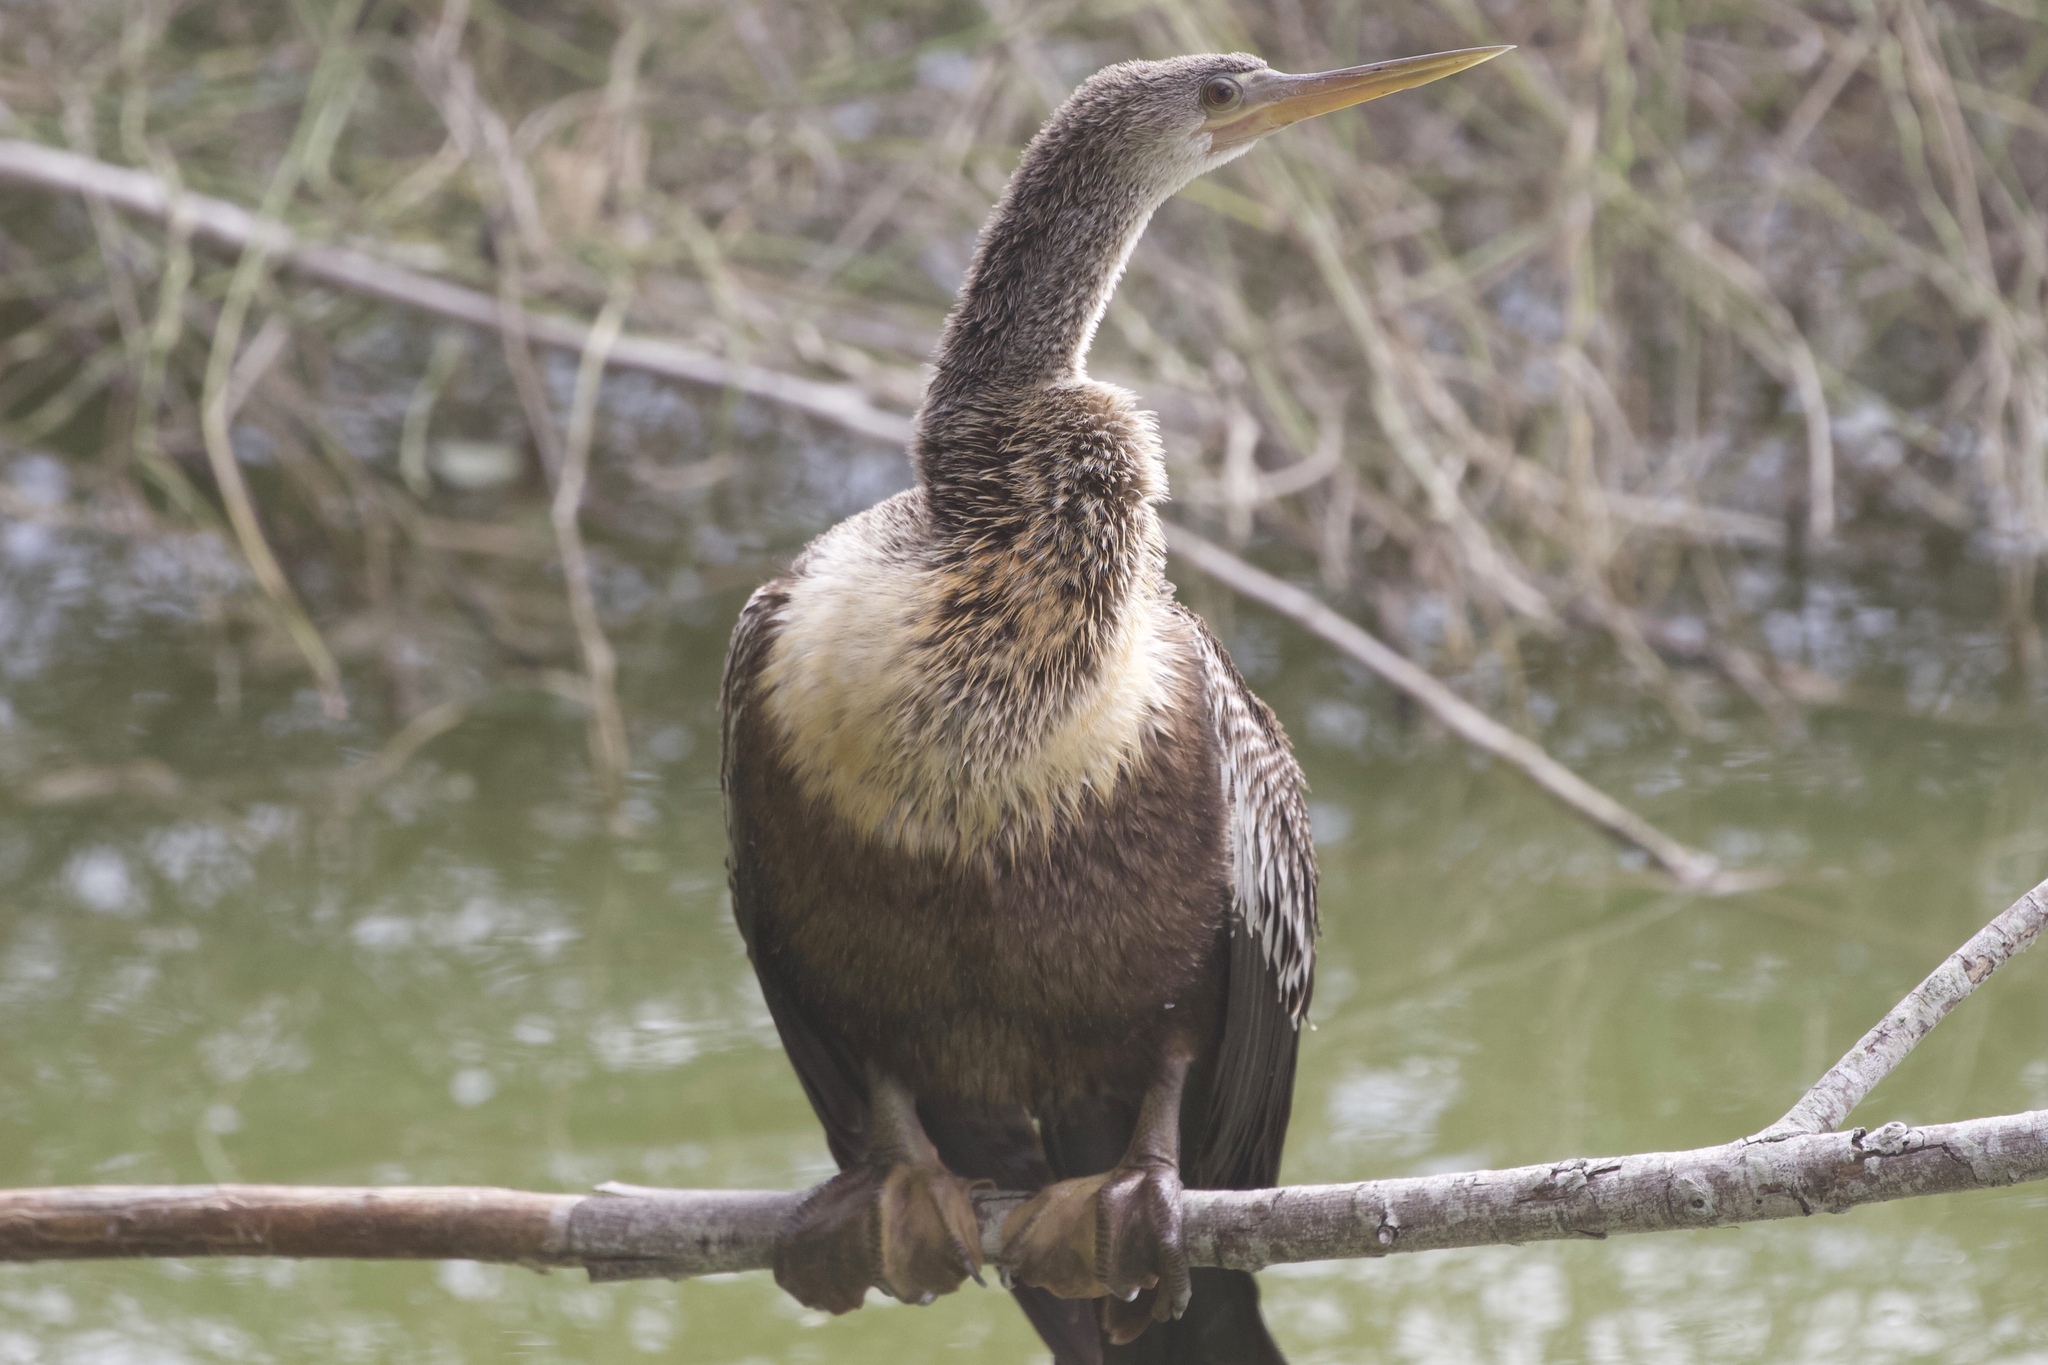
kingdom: Animalia
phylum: Chordata
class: Aves
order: Suliformes
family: Anhingidae
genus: Anhinga
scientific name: Anhinga anhinga
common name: Anhinga
